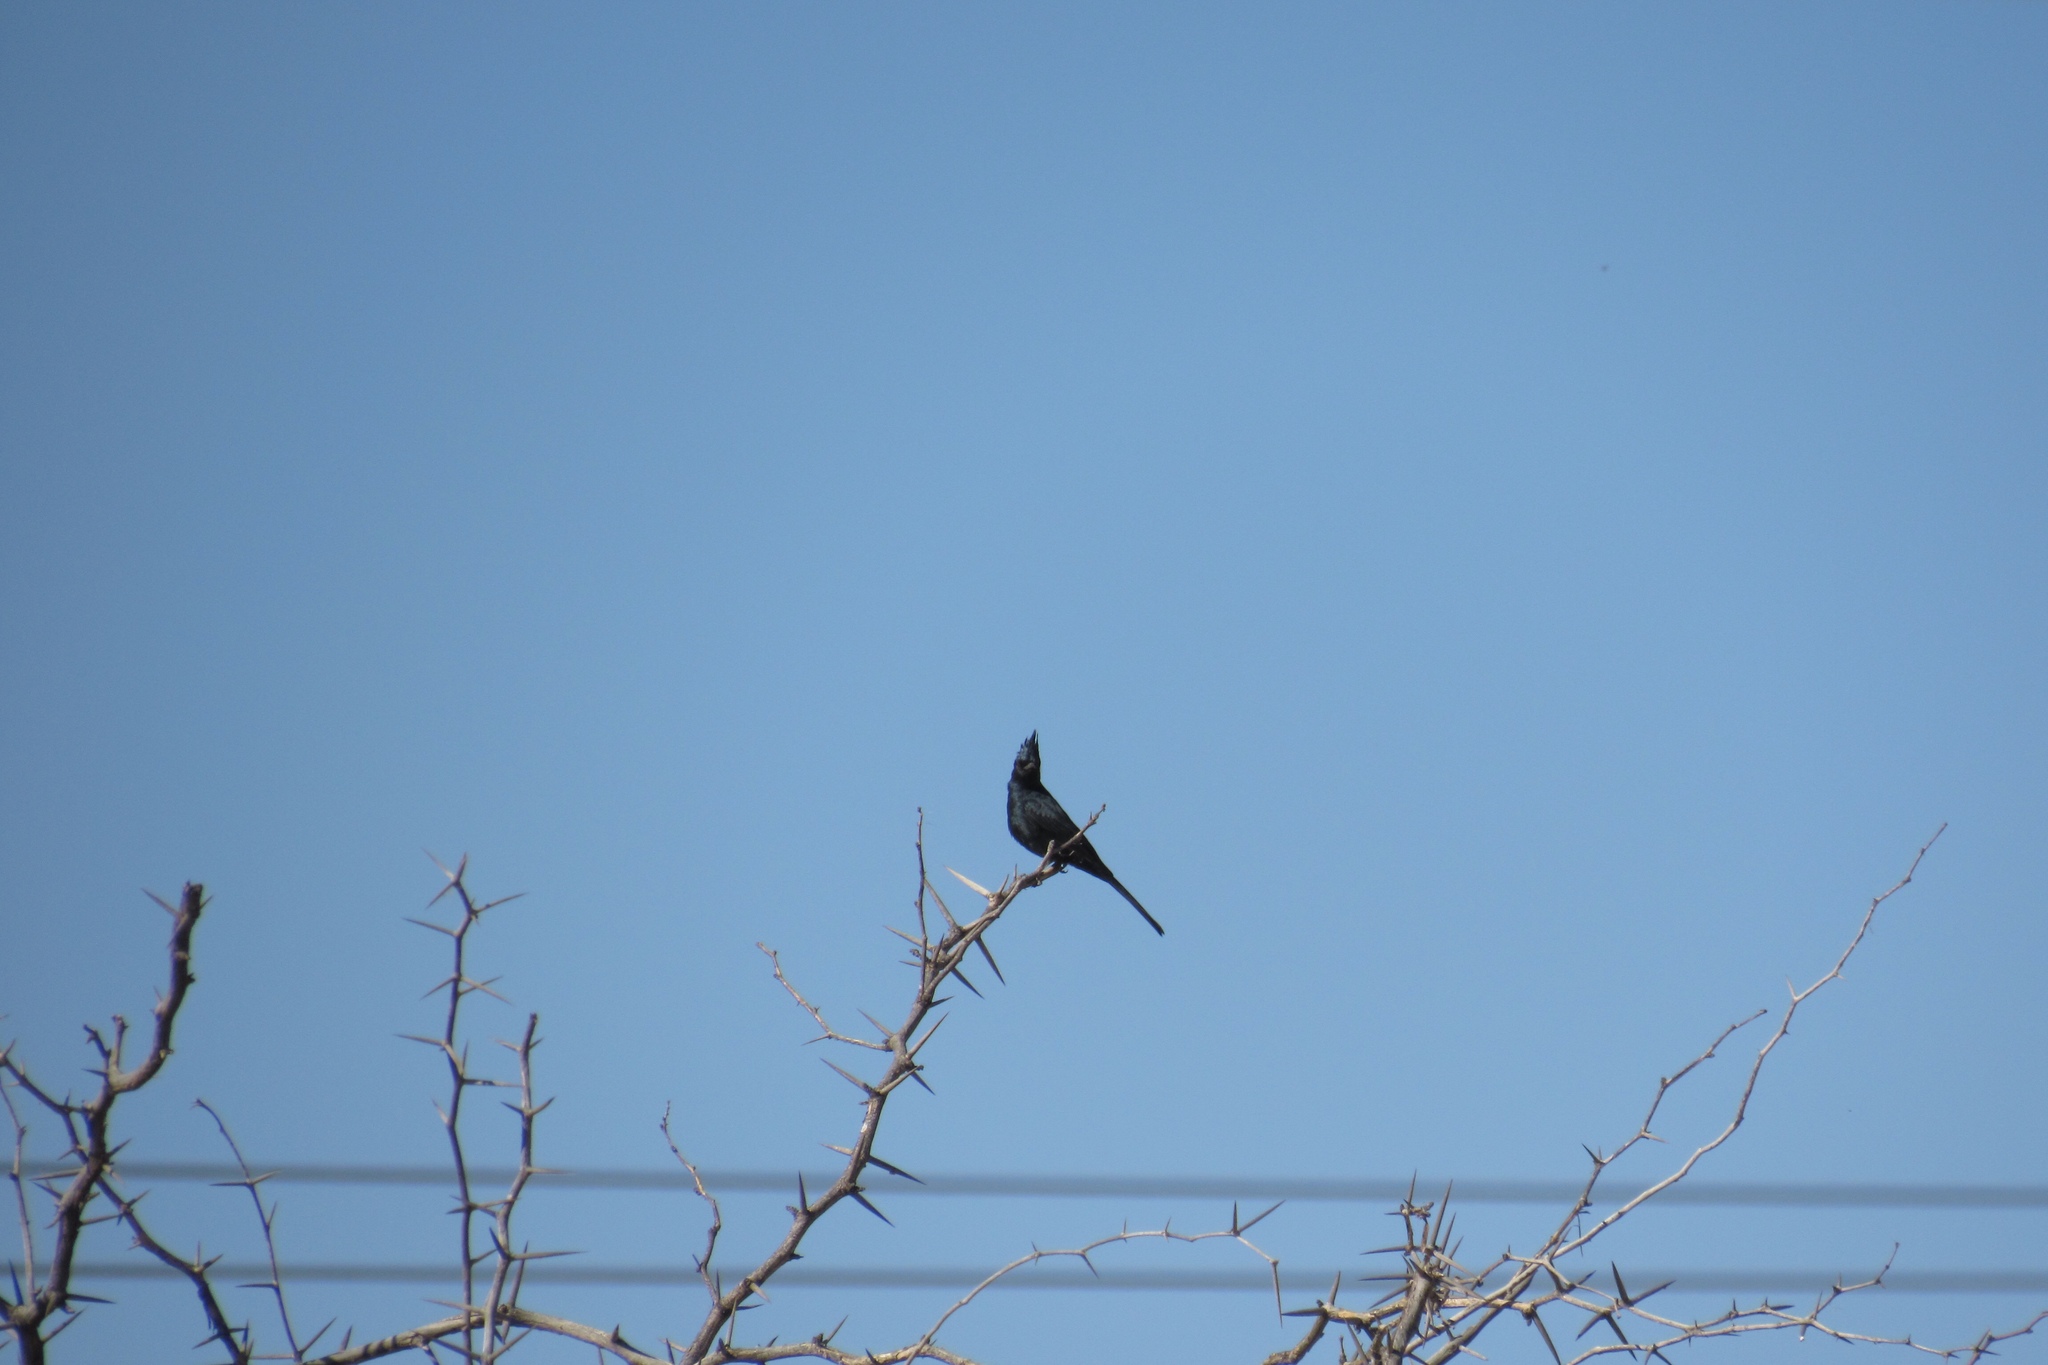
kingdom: Animalia
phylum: Chordata
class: Aves
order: Passeriformes
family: Ptilogonatidae
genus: Phainopepla
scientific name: Phainopepla nitens
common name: Phainopepla
